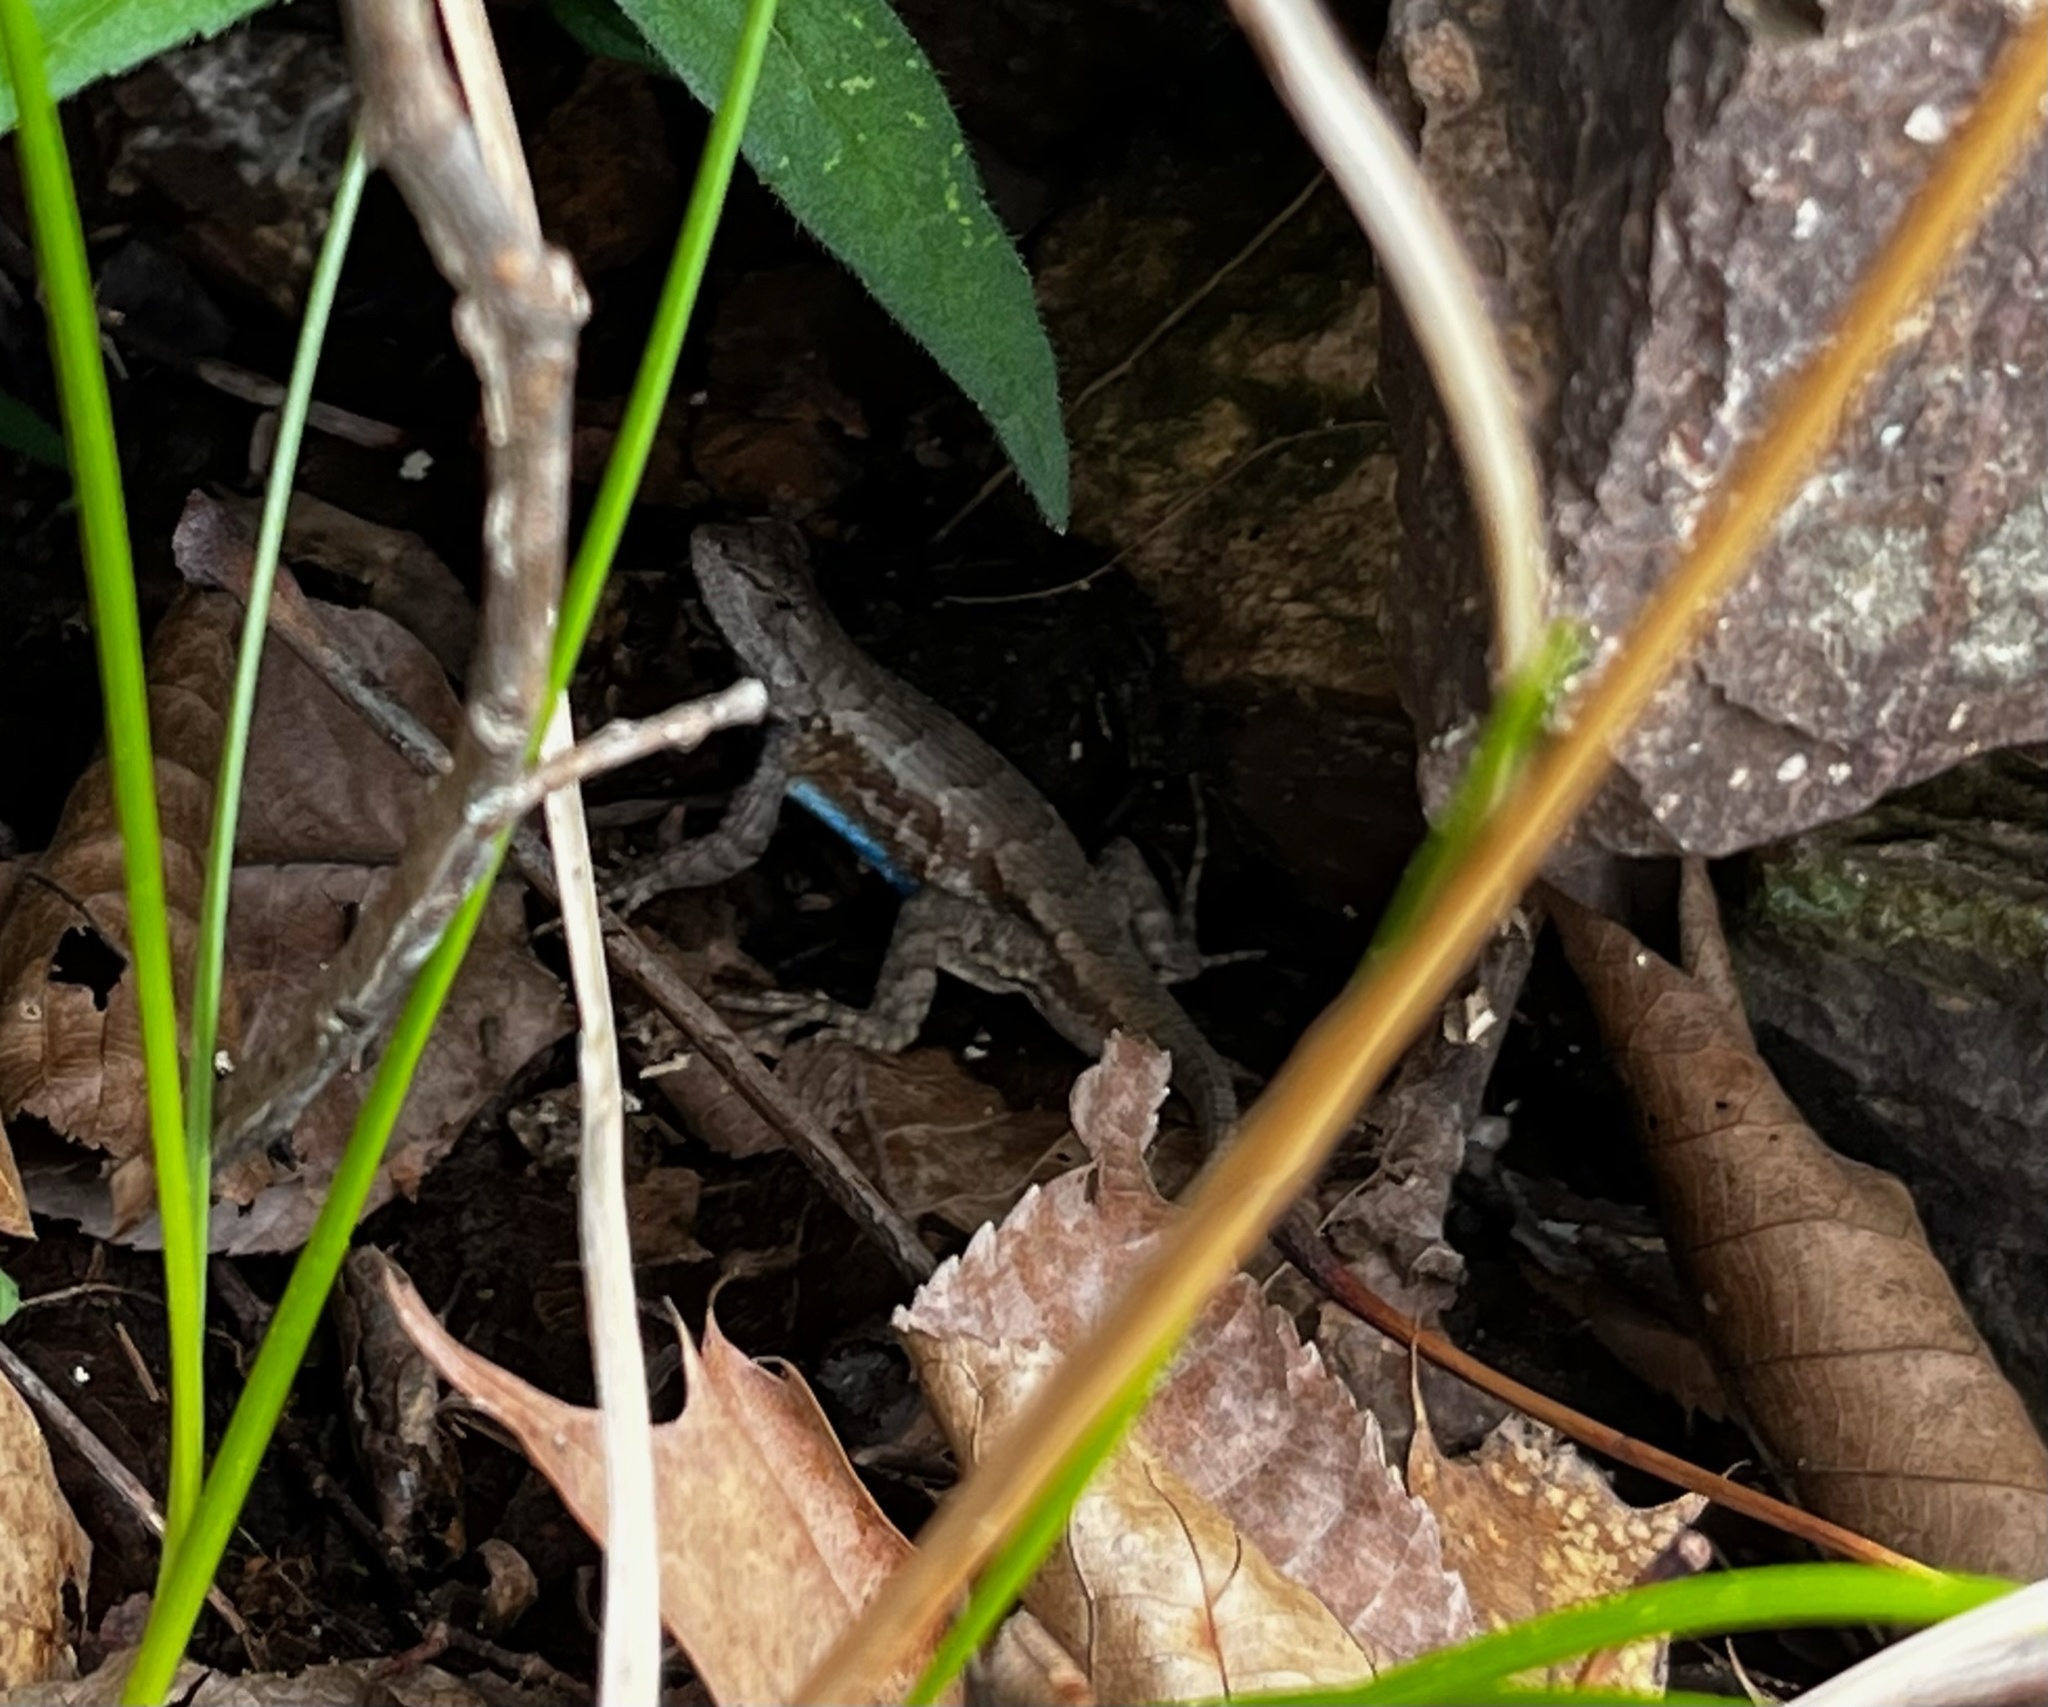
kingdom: Animalia
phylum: Chordata
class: Squamata
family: Phrynosomatidae
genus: Sceloporus
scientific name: Sceloporus consobrinus
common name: Southern prairie lizard
